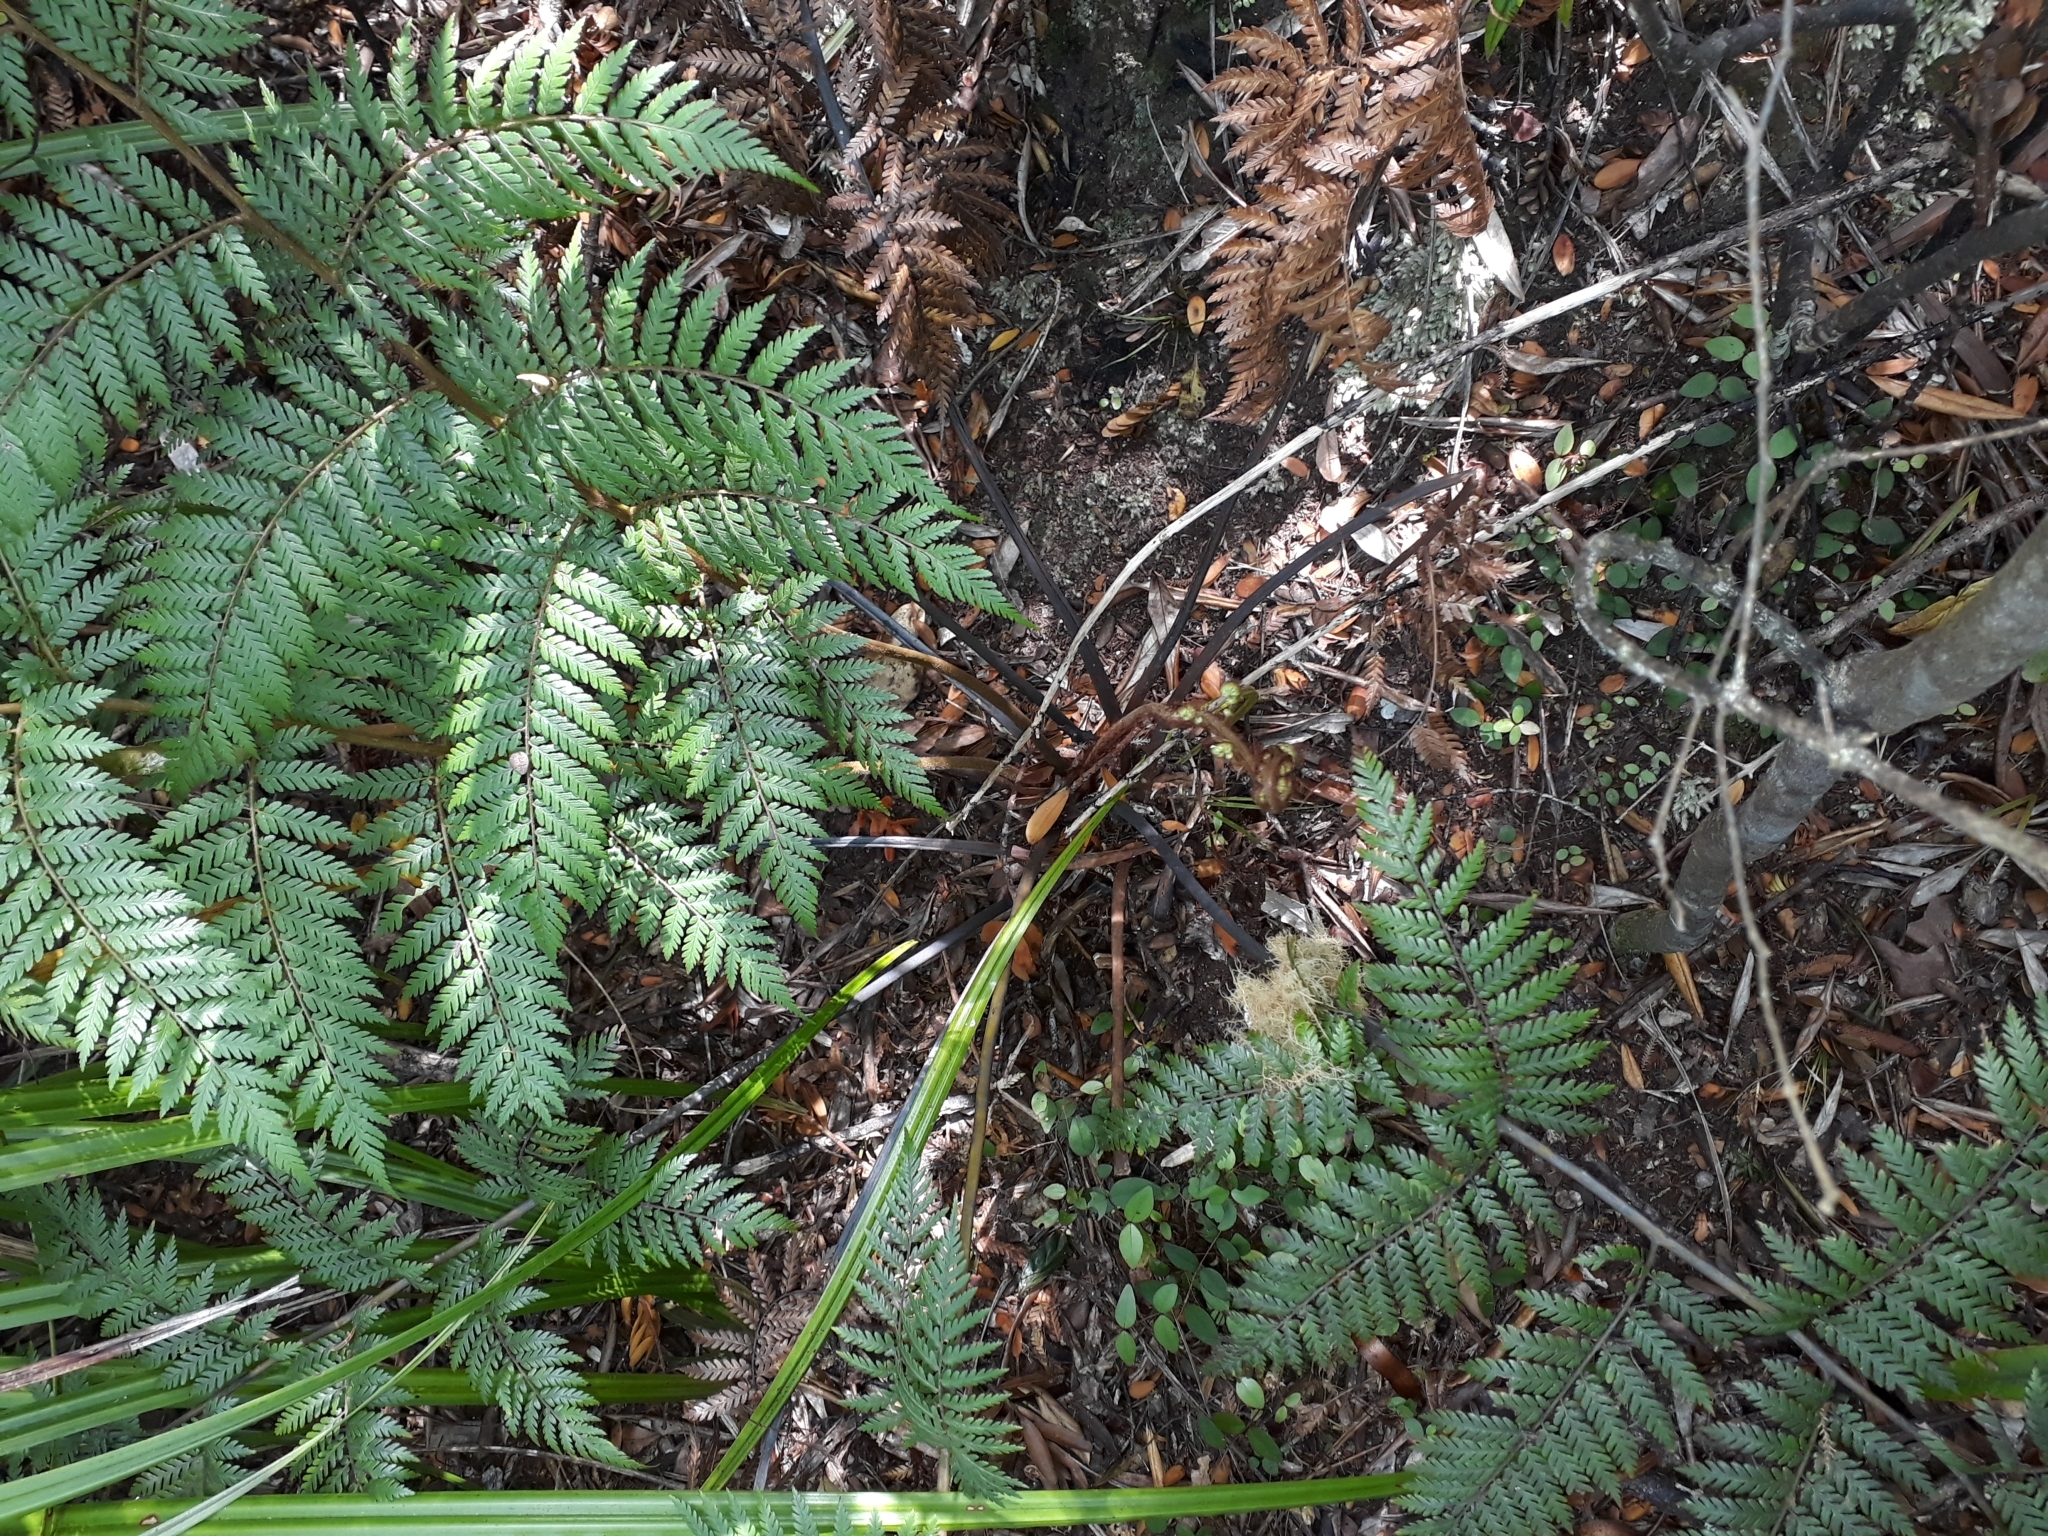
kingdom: Plantae
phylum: Tracheophyta
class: Polypodiopsida
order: Cyatheales
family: Dicksoniaceae
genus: Dicksonia
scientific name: Dicksonia lanata
